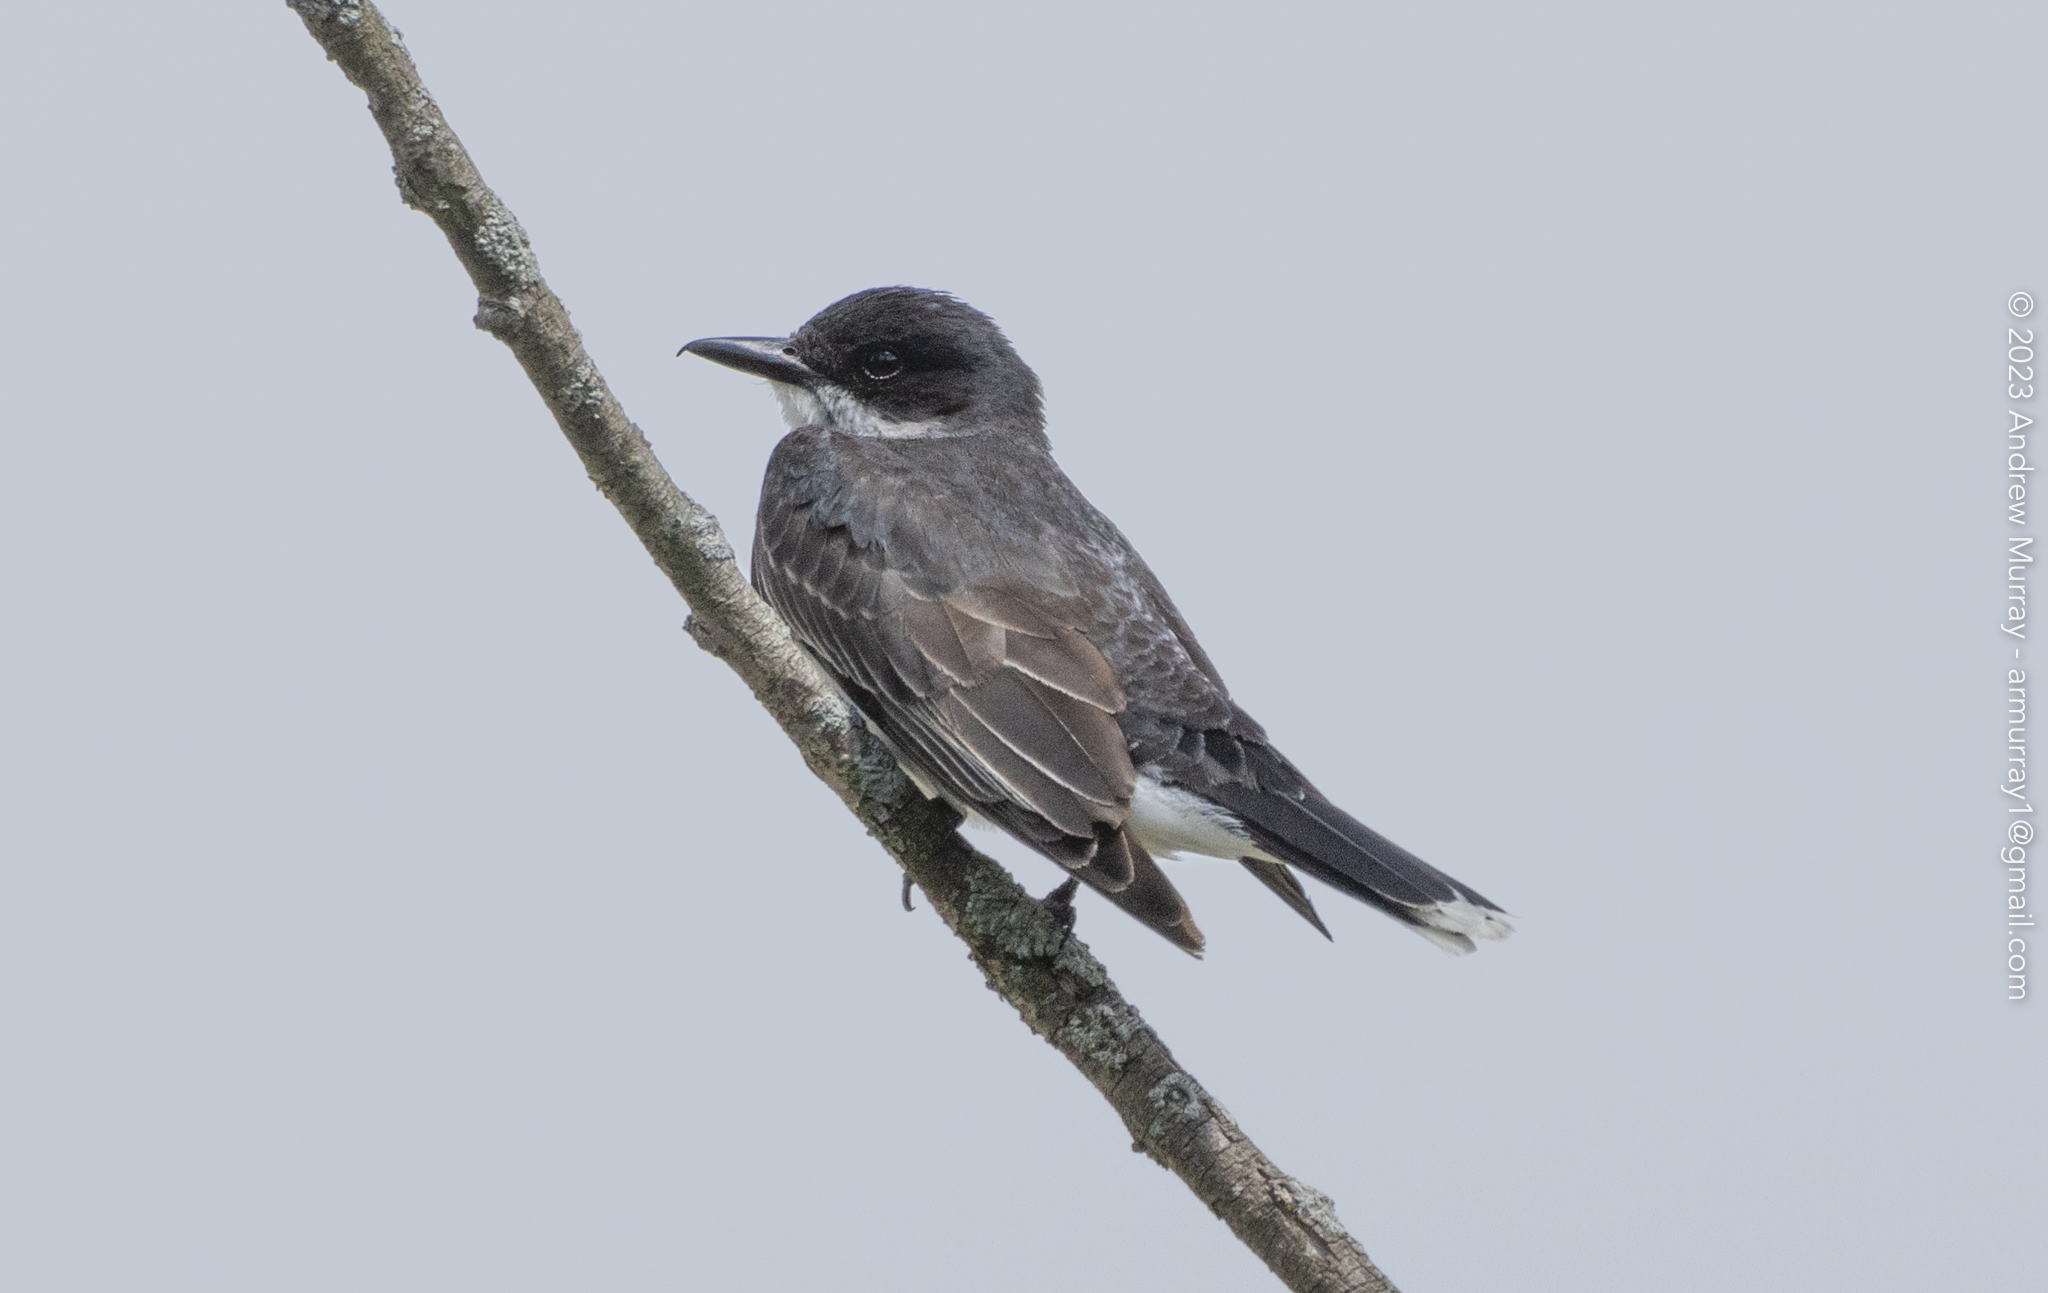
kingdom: Animalia
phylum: Chordata
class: Aves
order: Passeriformes
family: Tyrannidae
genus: Tyrannus
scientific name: Tyrannus tyrannus
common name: Eastern kingbird
